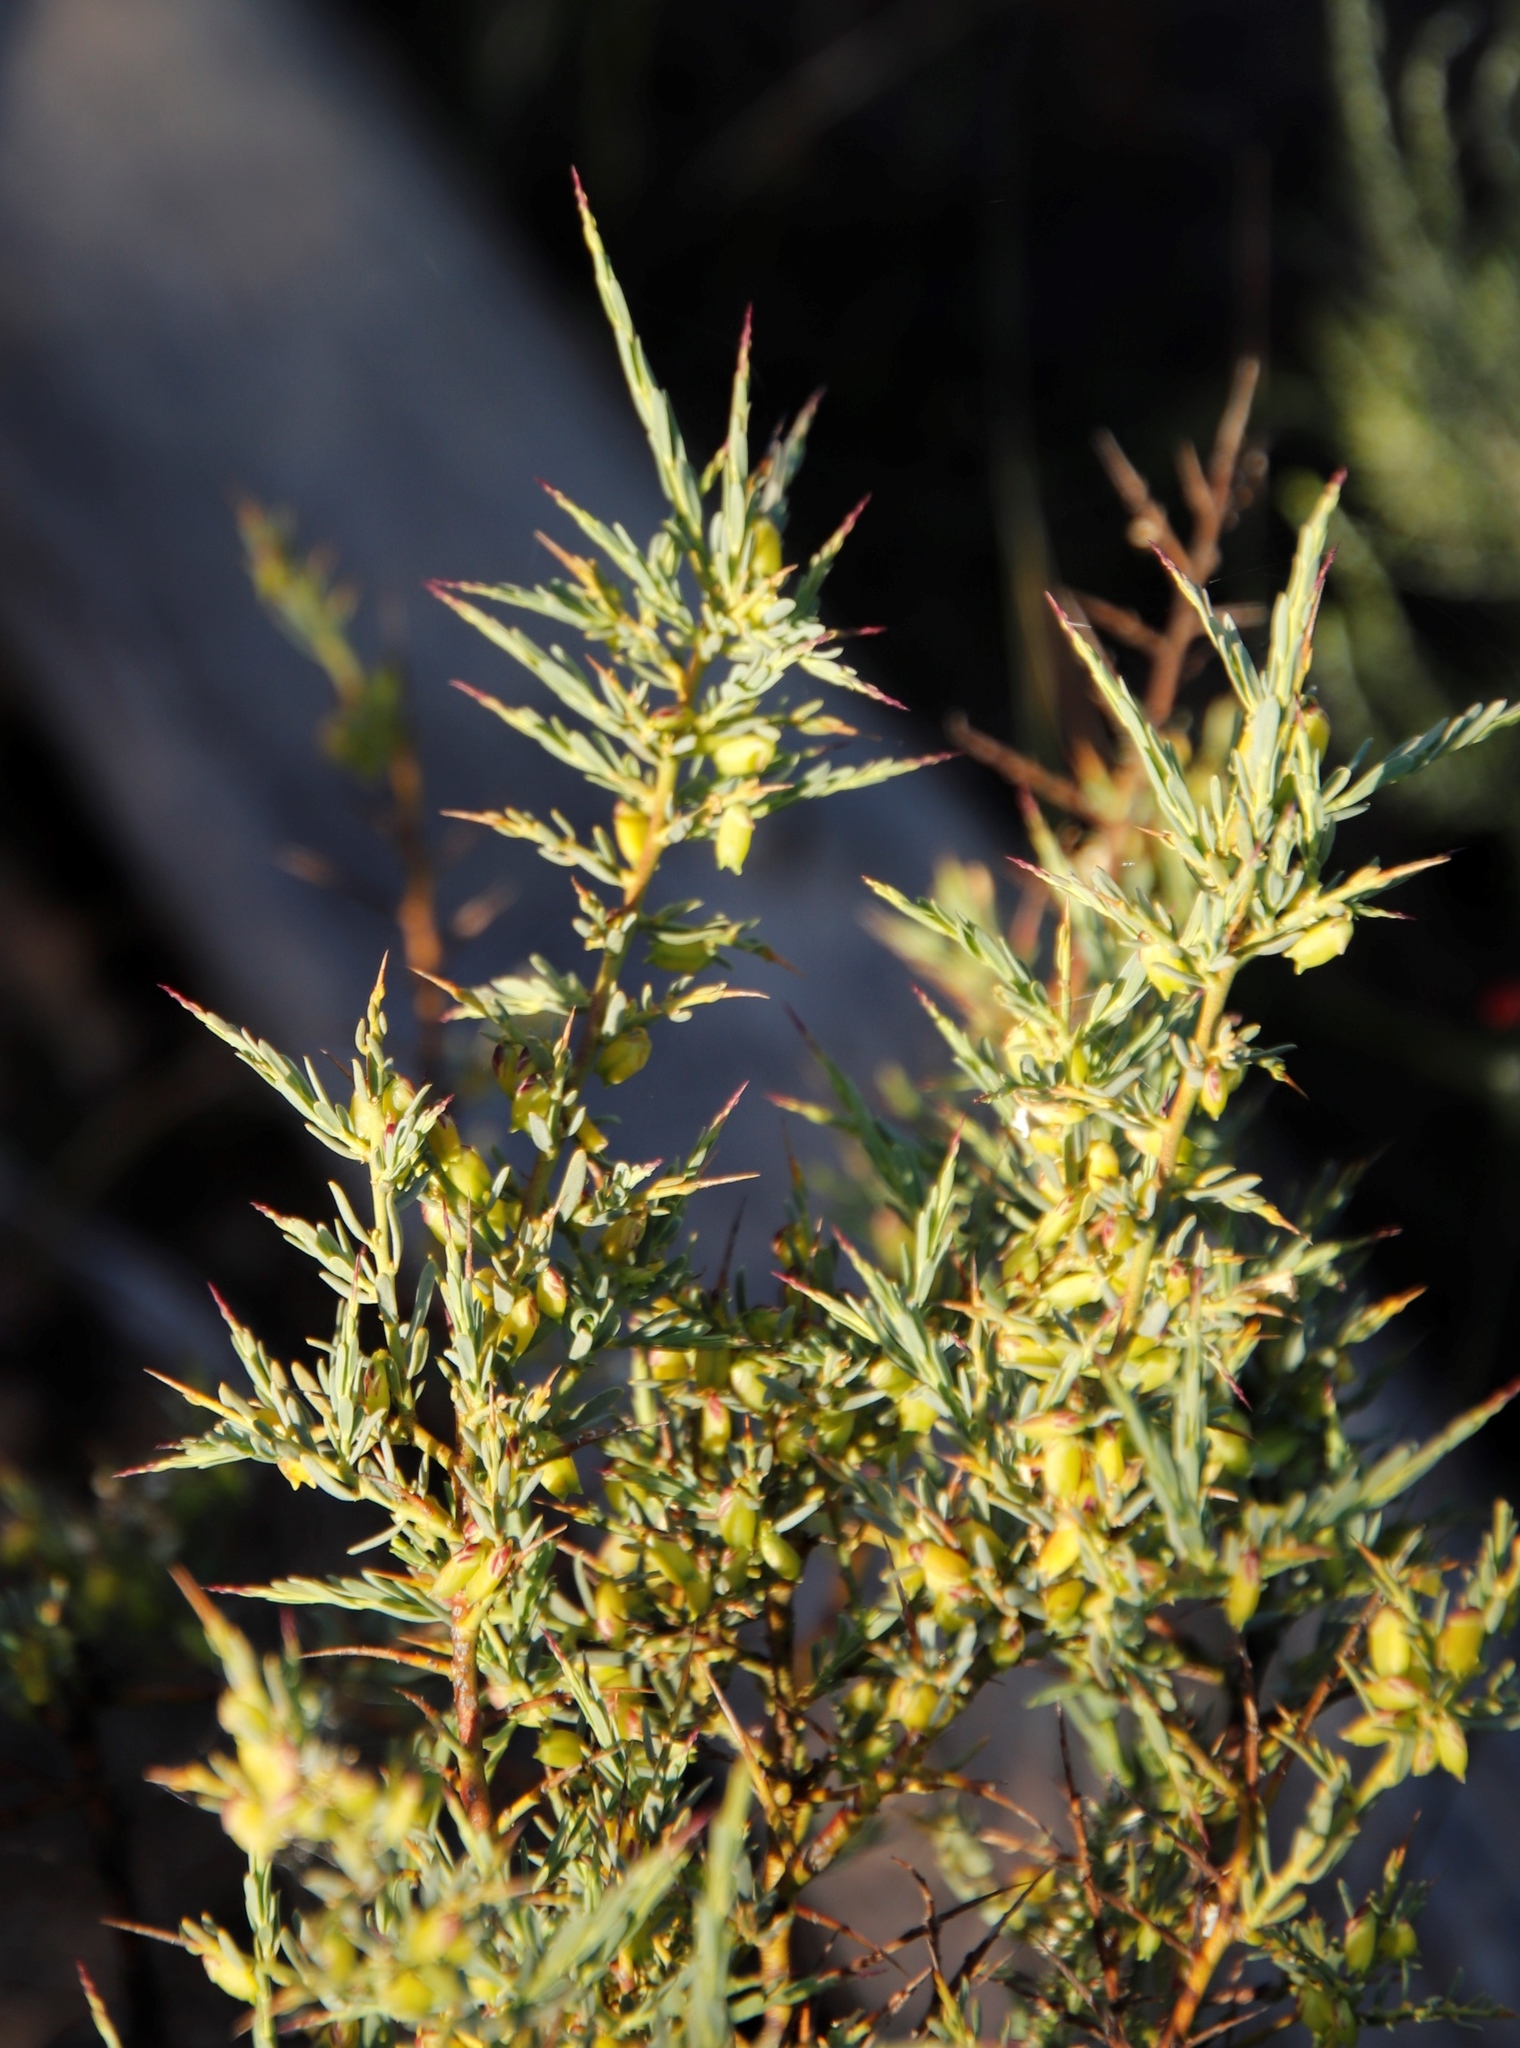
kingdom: Plantae
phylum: Tracheophyta
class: Magnoliopsida
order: Fabales
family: Polygalaceae
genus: Muraltia
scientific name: Muraltia spinosa
